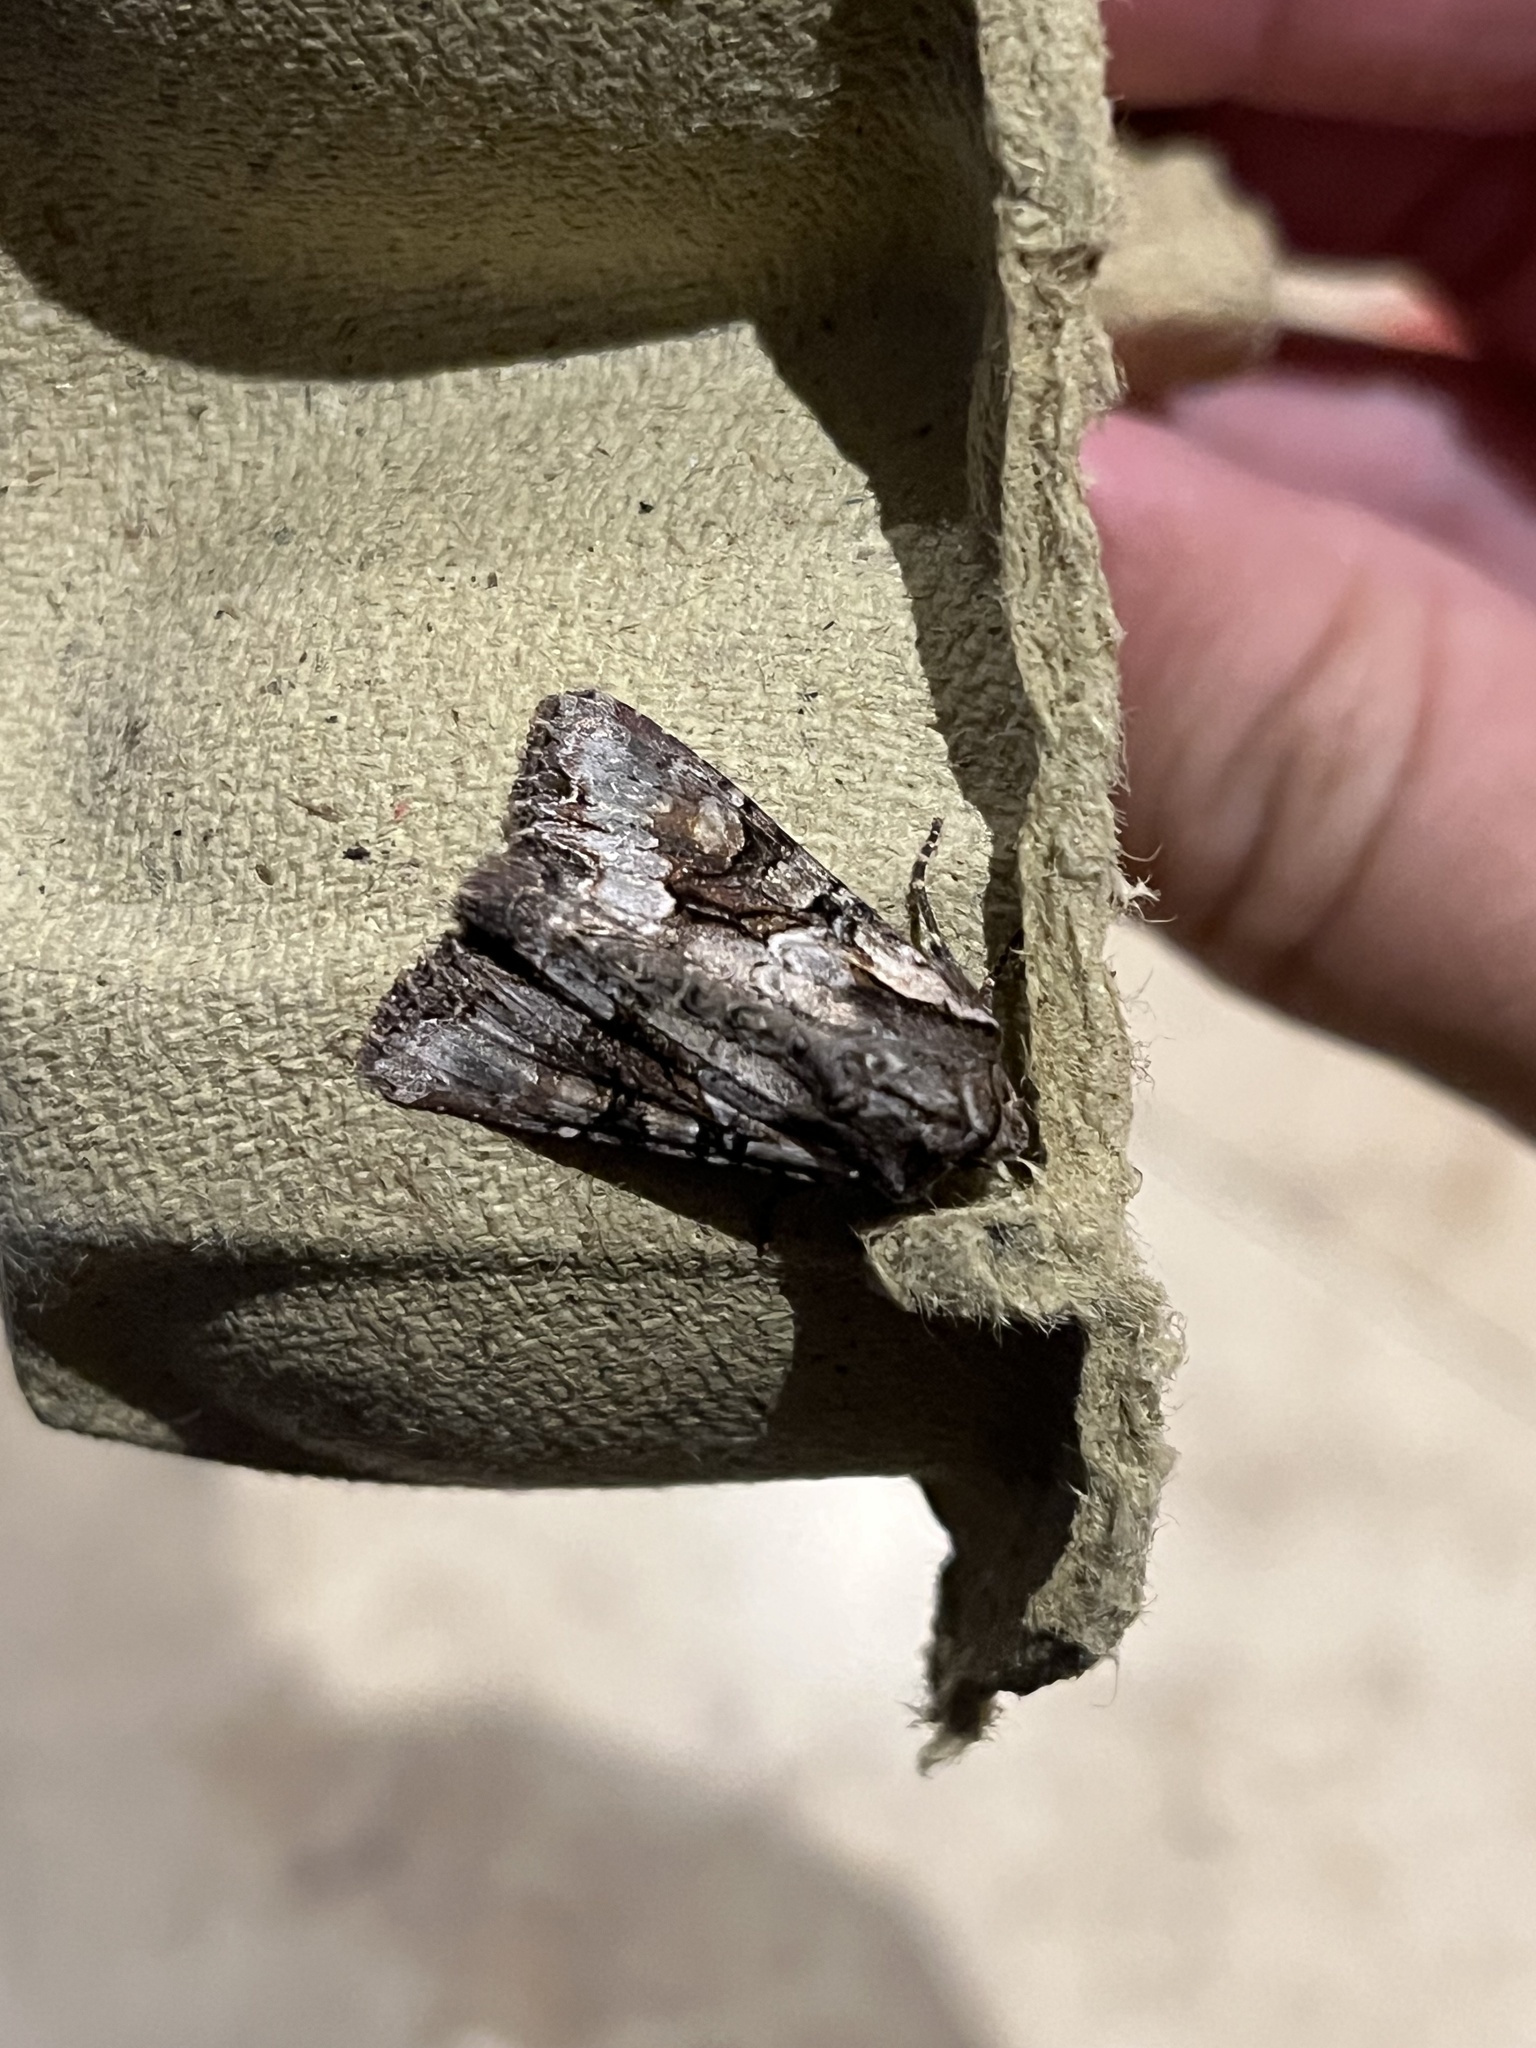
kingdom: Animalia
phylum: Arthropoda
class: Insecta
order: Lepidoptera
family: Noctuidae
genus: Lacanobia
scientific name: Lacanobia w-latinum
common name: Light brocade
